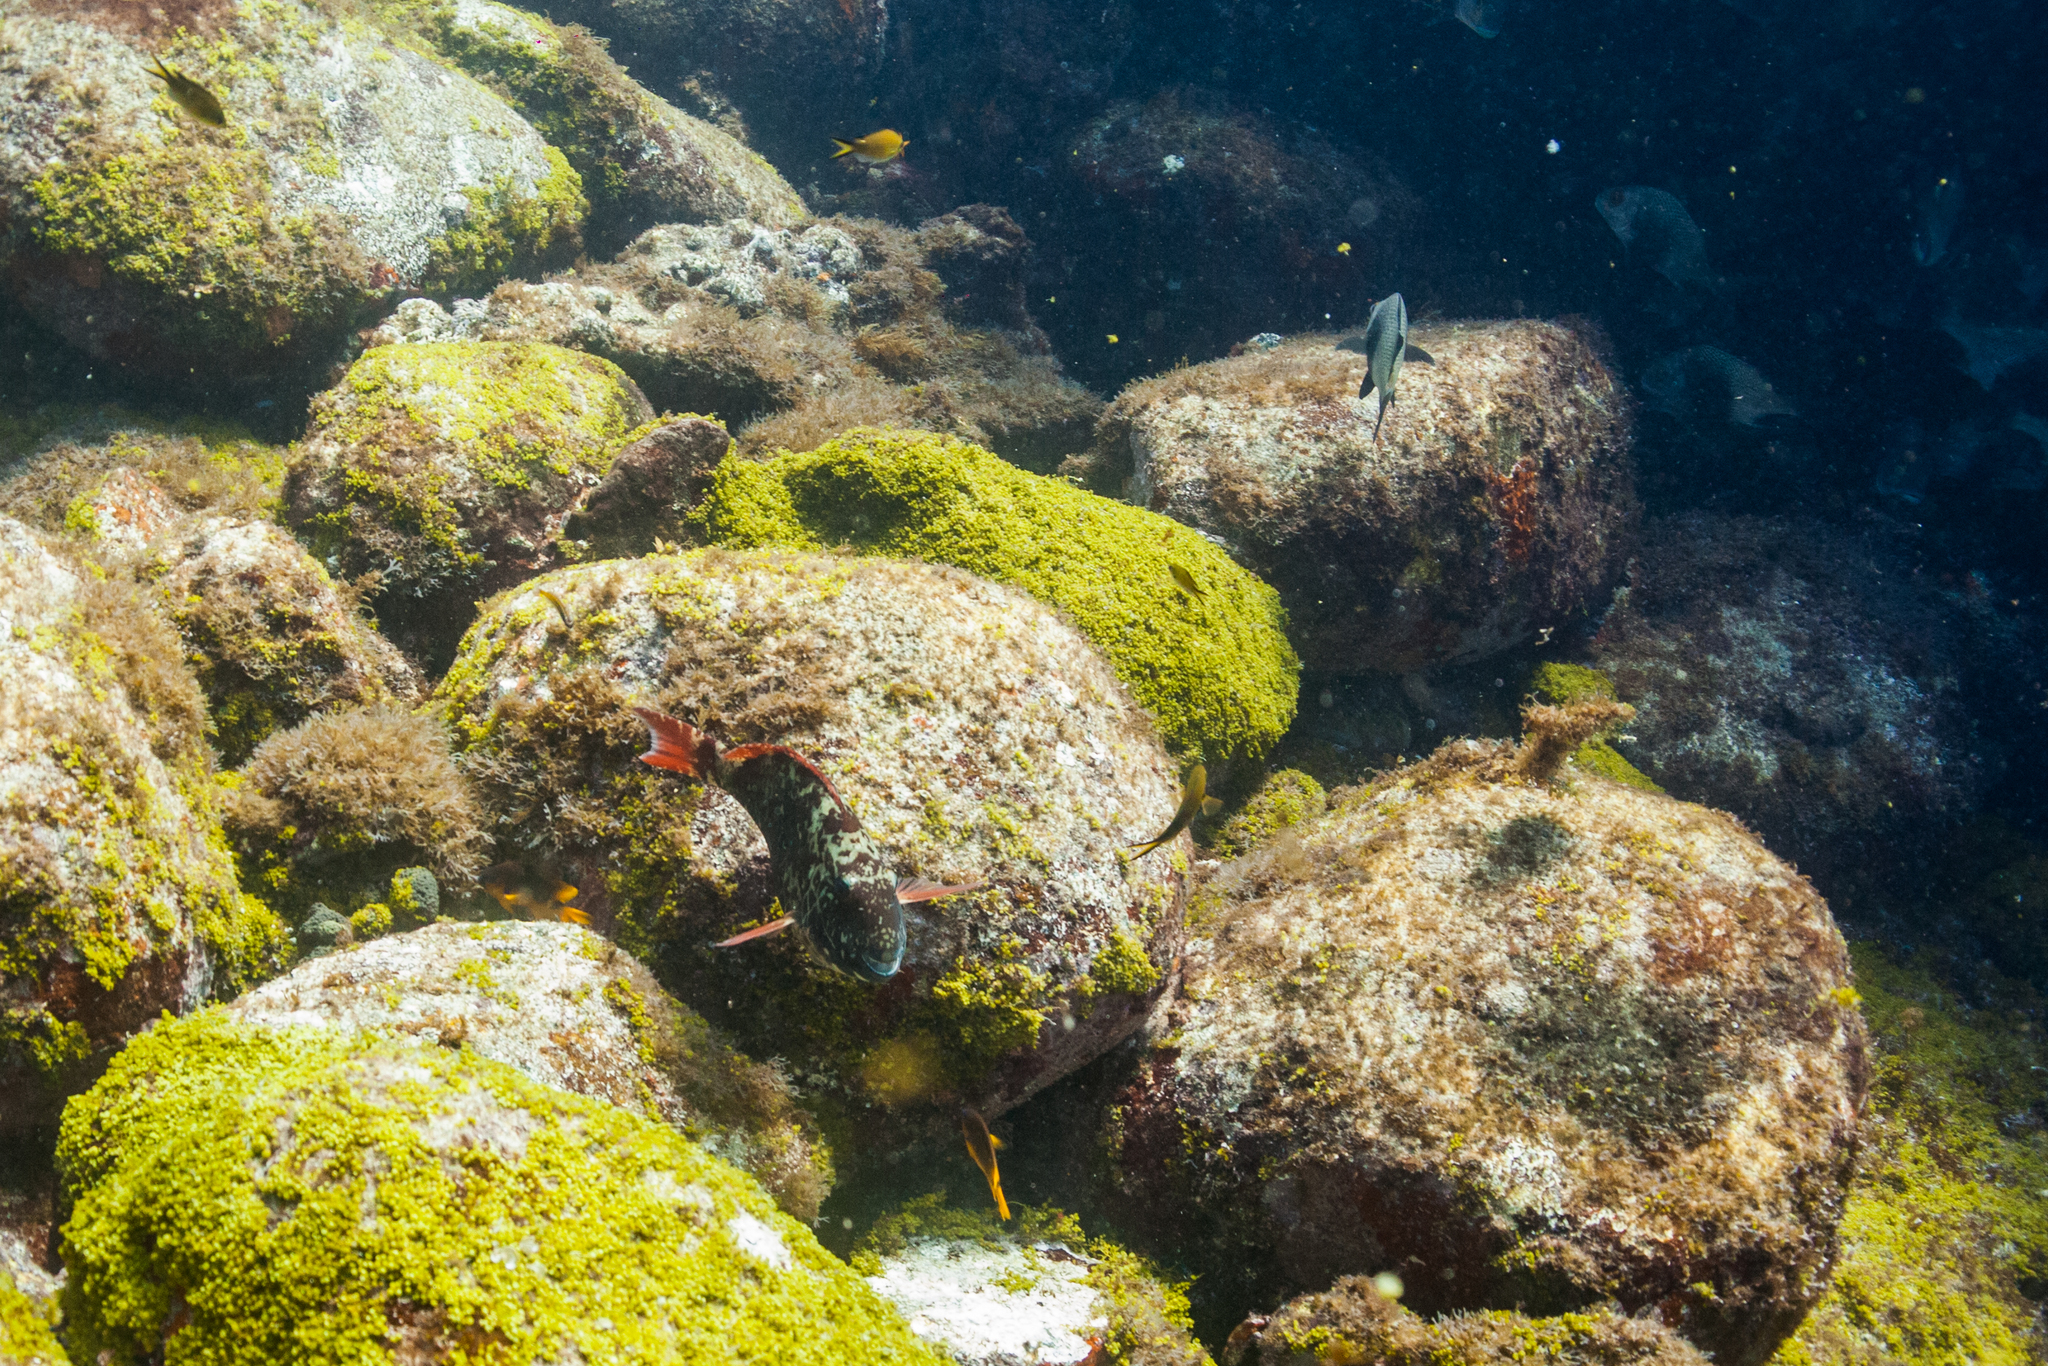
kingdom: Animalia
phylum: Chordata
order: Perciformes
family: Scaridae
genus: Sparisoma
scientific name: Sparisoma frondosum
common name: Agassiz's parrotfish
